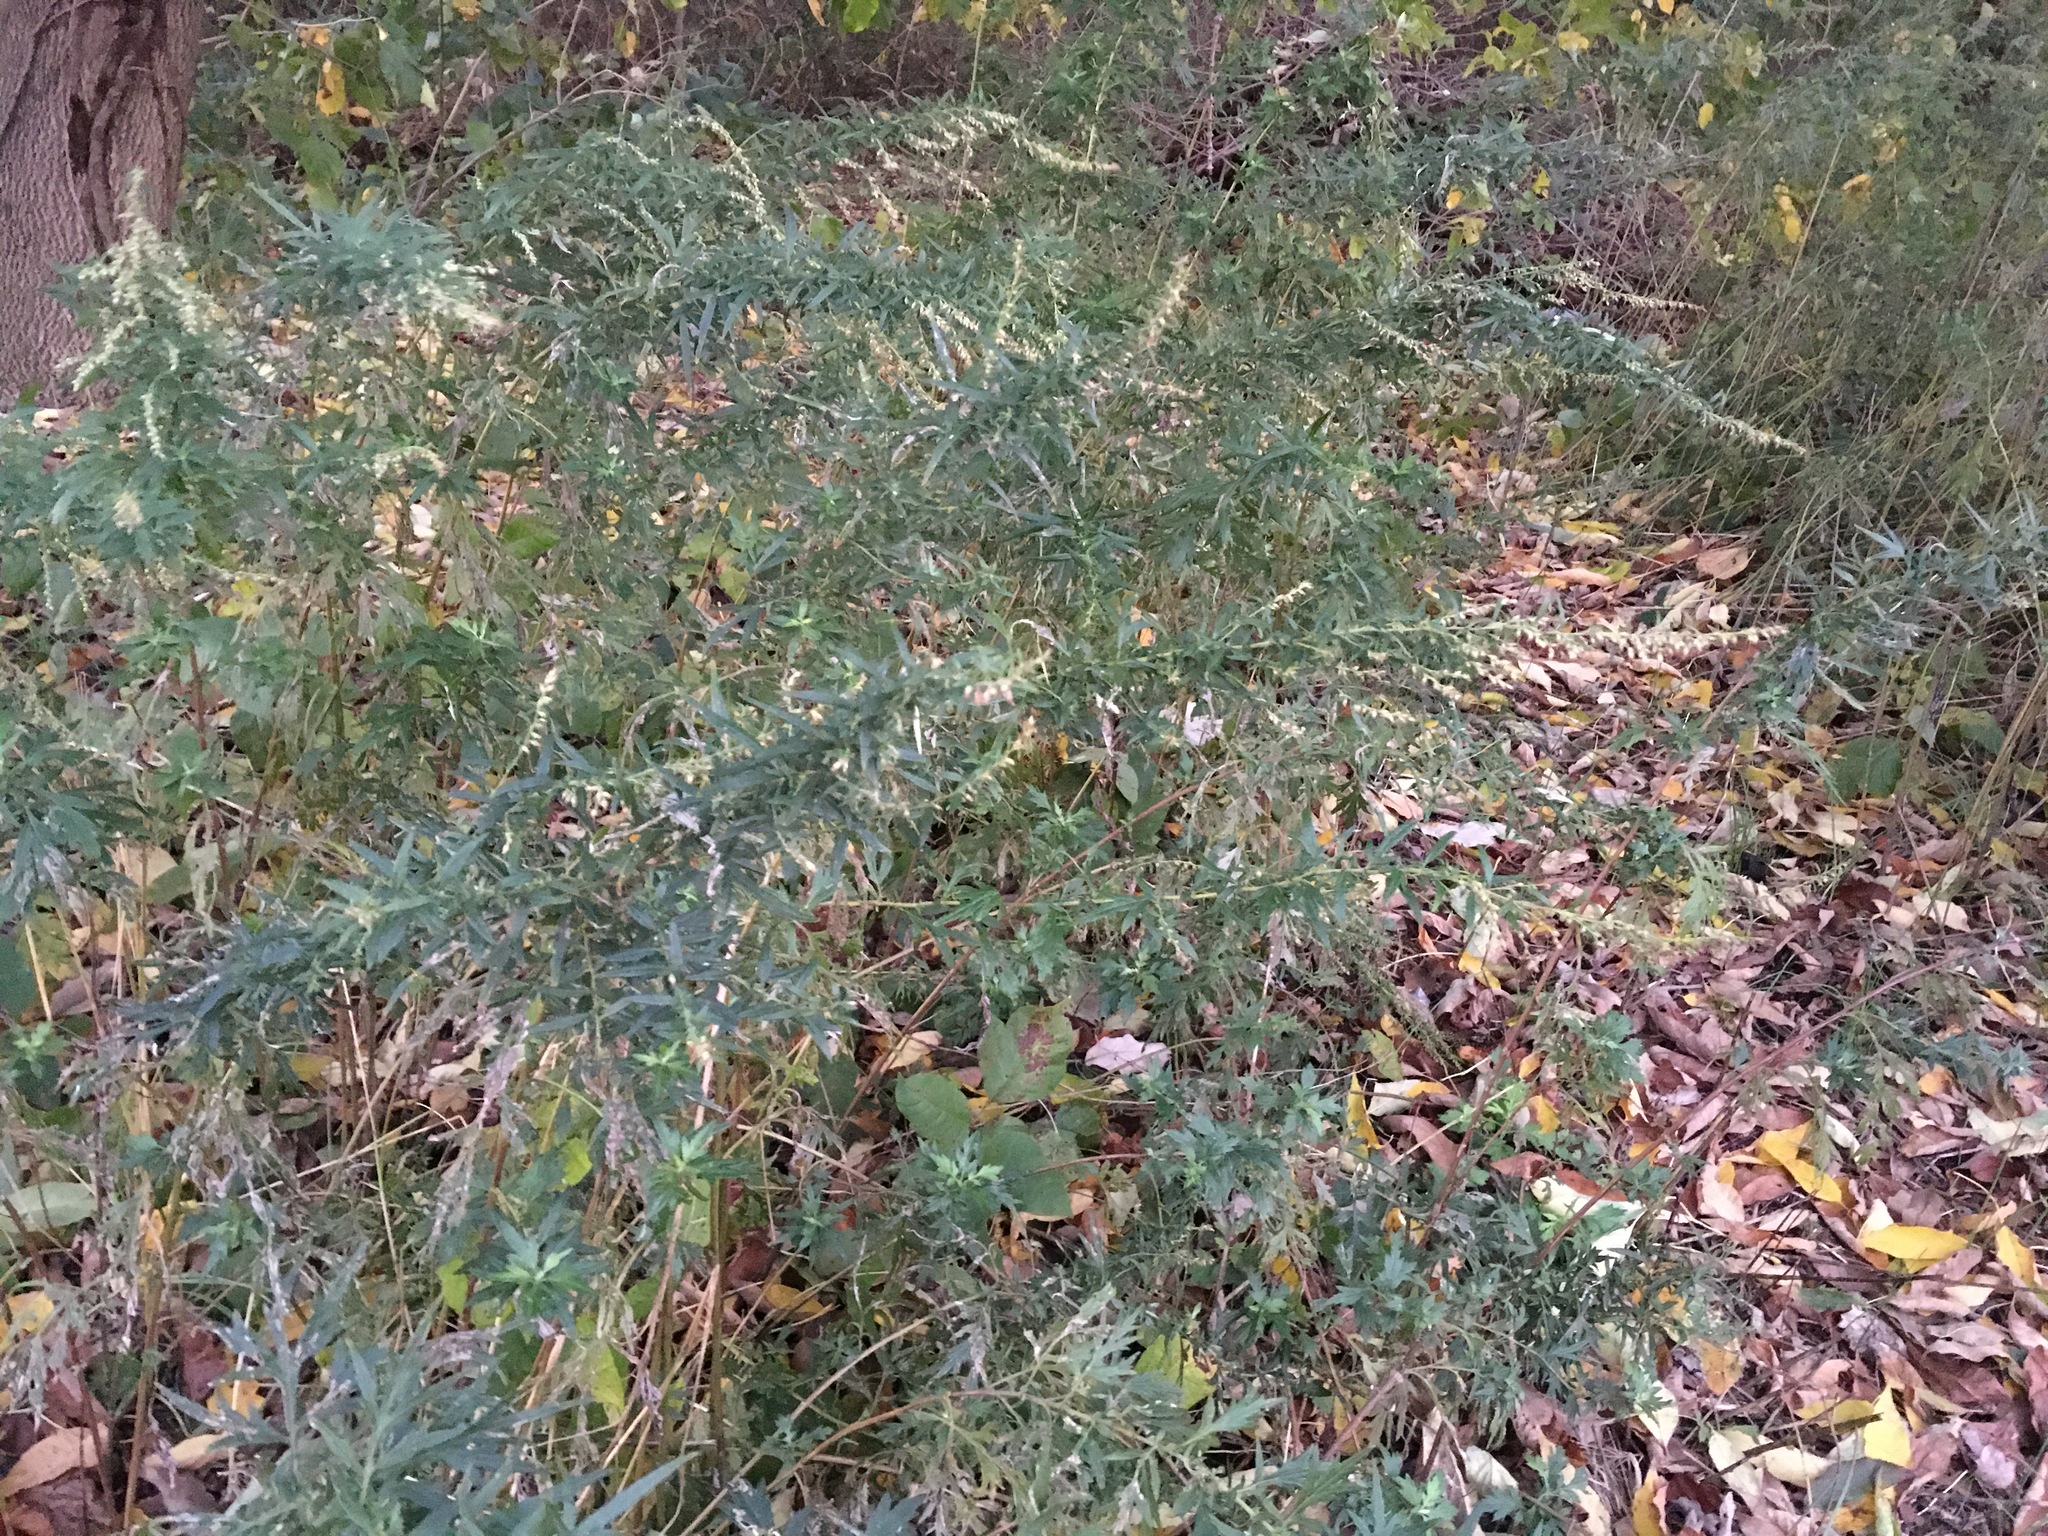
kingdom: Plantae
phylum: Tracheophyta
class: Magnoliopsida
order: Asterales
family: Asteraceae
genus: Artemisia
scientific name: Artemisia vulgaris
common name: Mugwort
